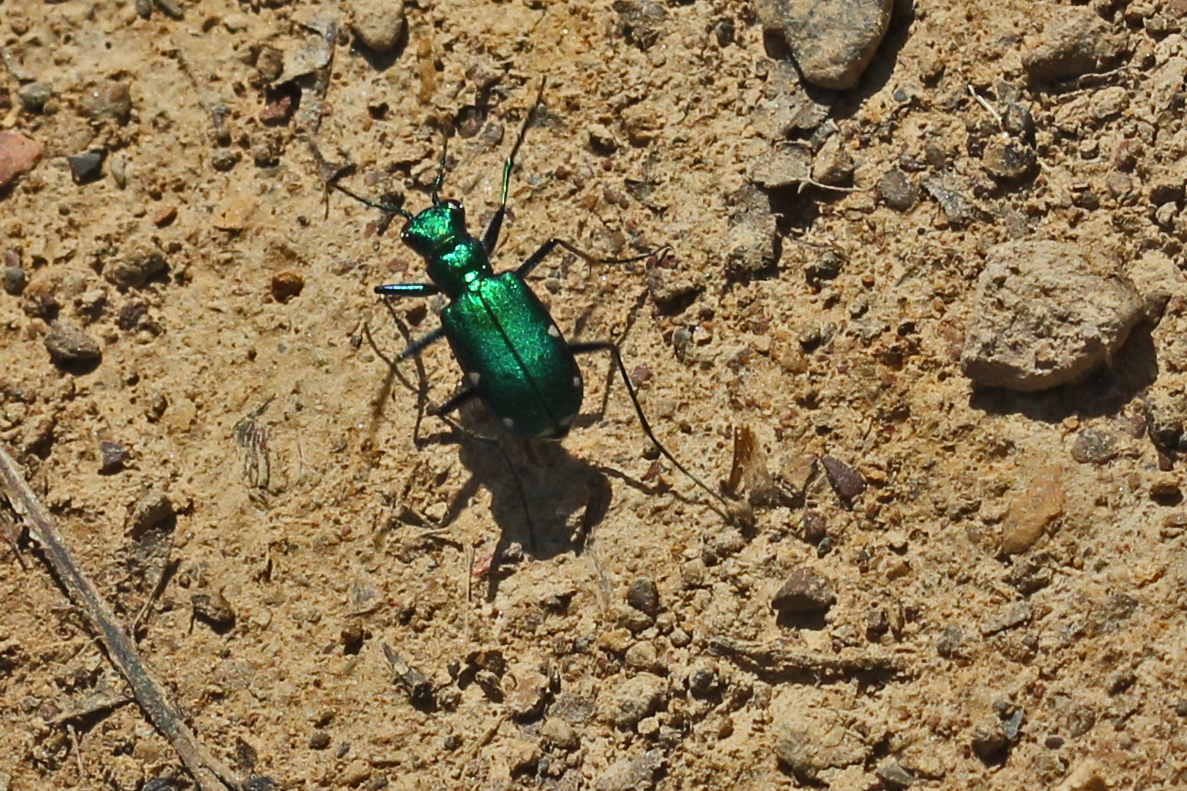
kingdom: Animalia
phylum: Arthropoda
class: Insecta
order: Coleoptera
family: Carabidae
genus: Cicindela
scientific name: Cicindela sexguttata
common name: Six-spotted tiger beetle
